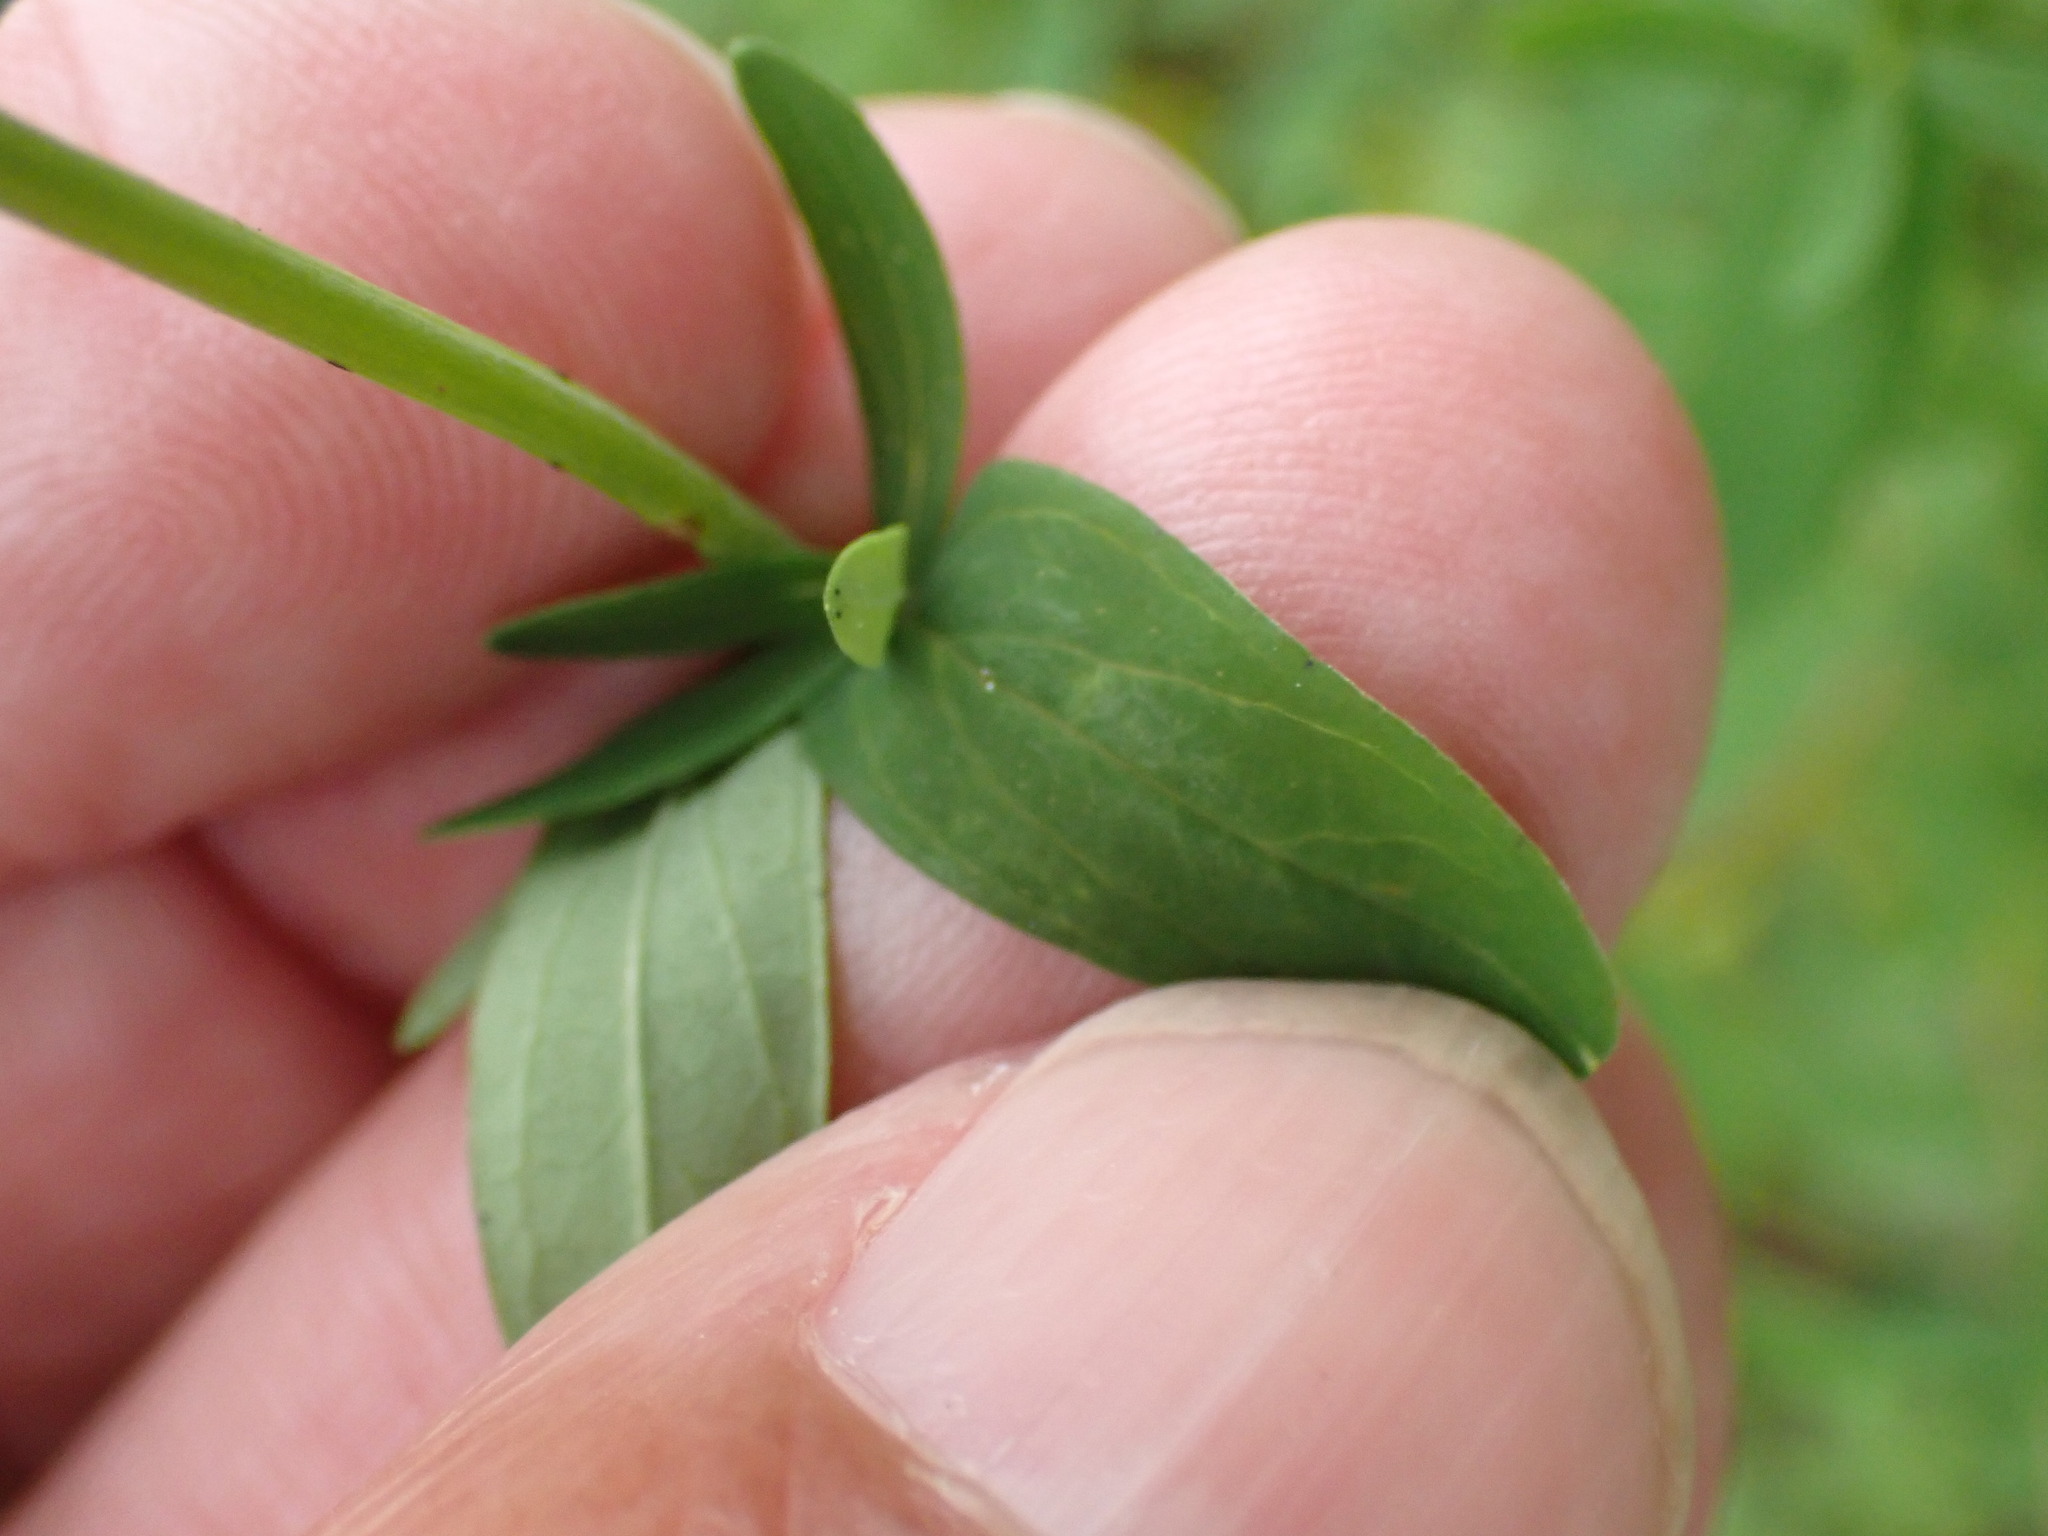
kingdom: Plantae
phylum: Tracheophyta
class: Magnoliopsida
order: Malpighiales
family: Hypericaceae
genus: Hypericum
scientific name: Hypericum perforatum
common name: Common st. johnswort
